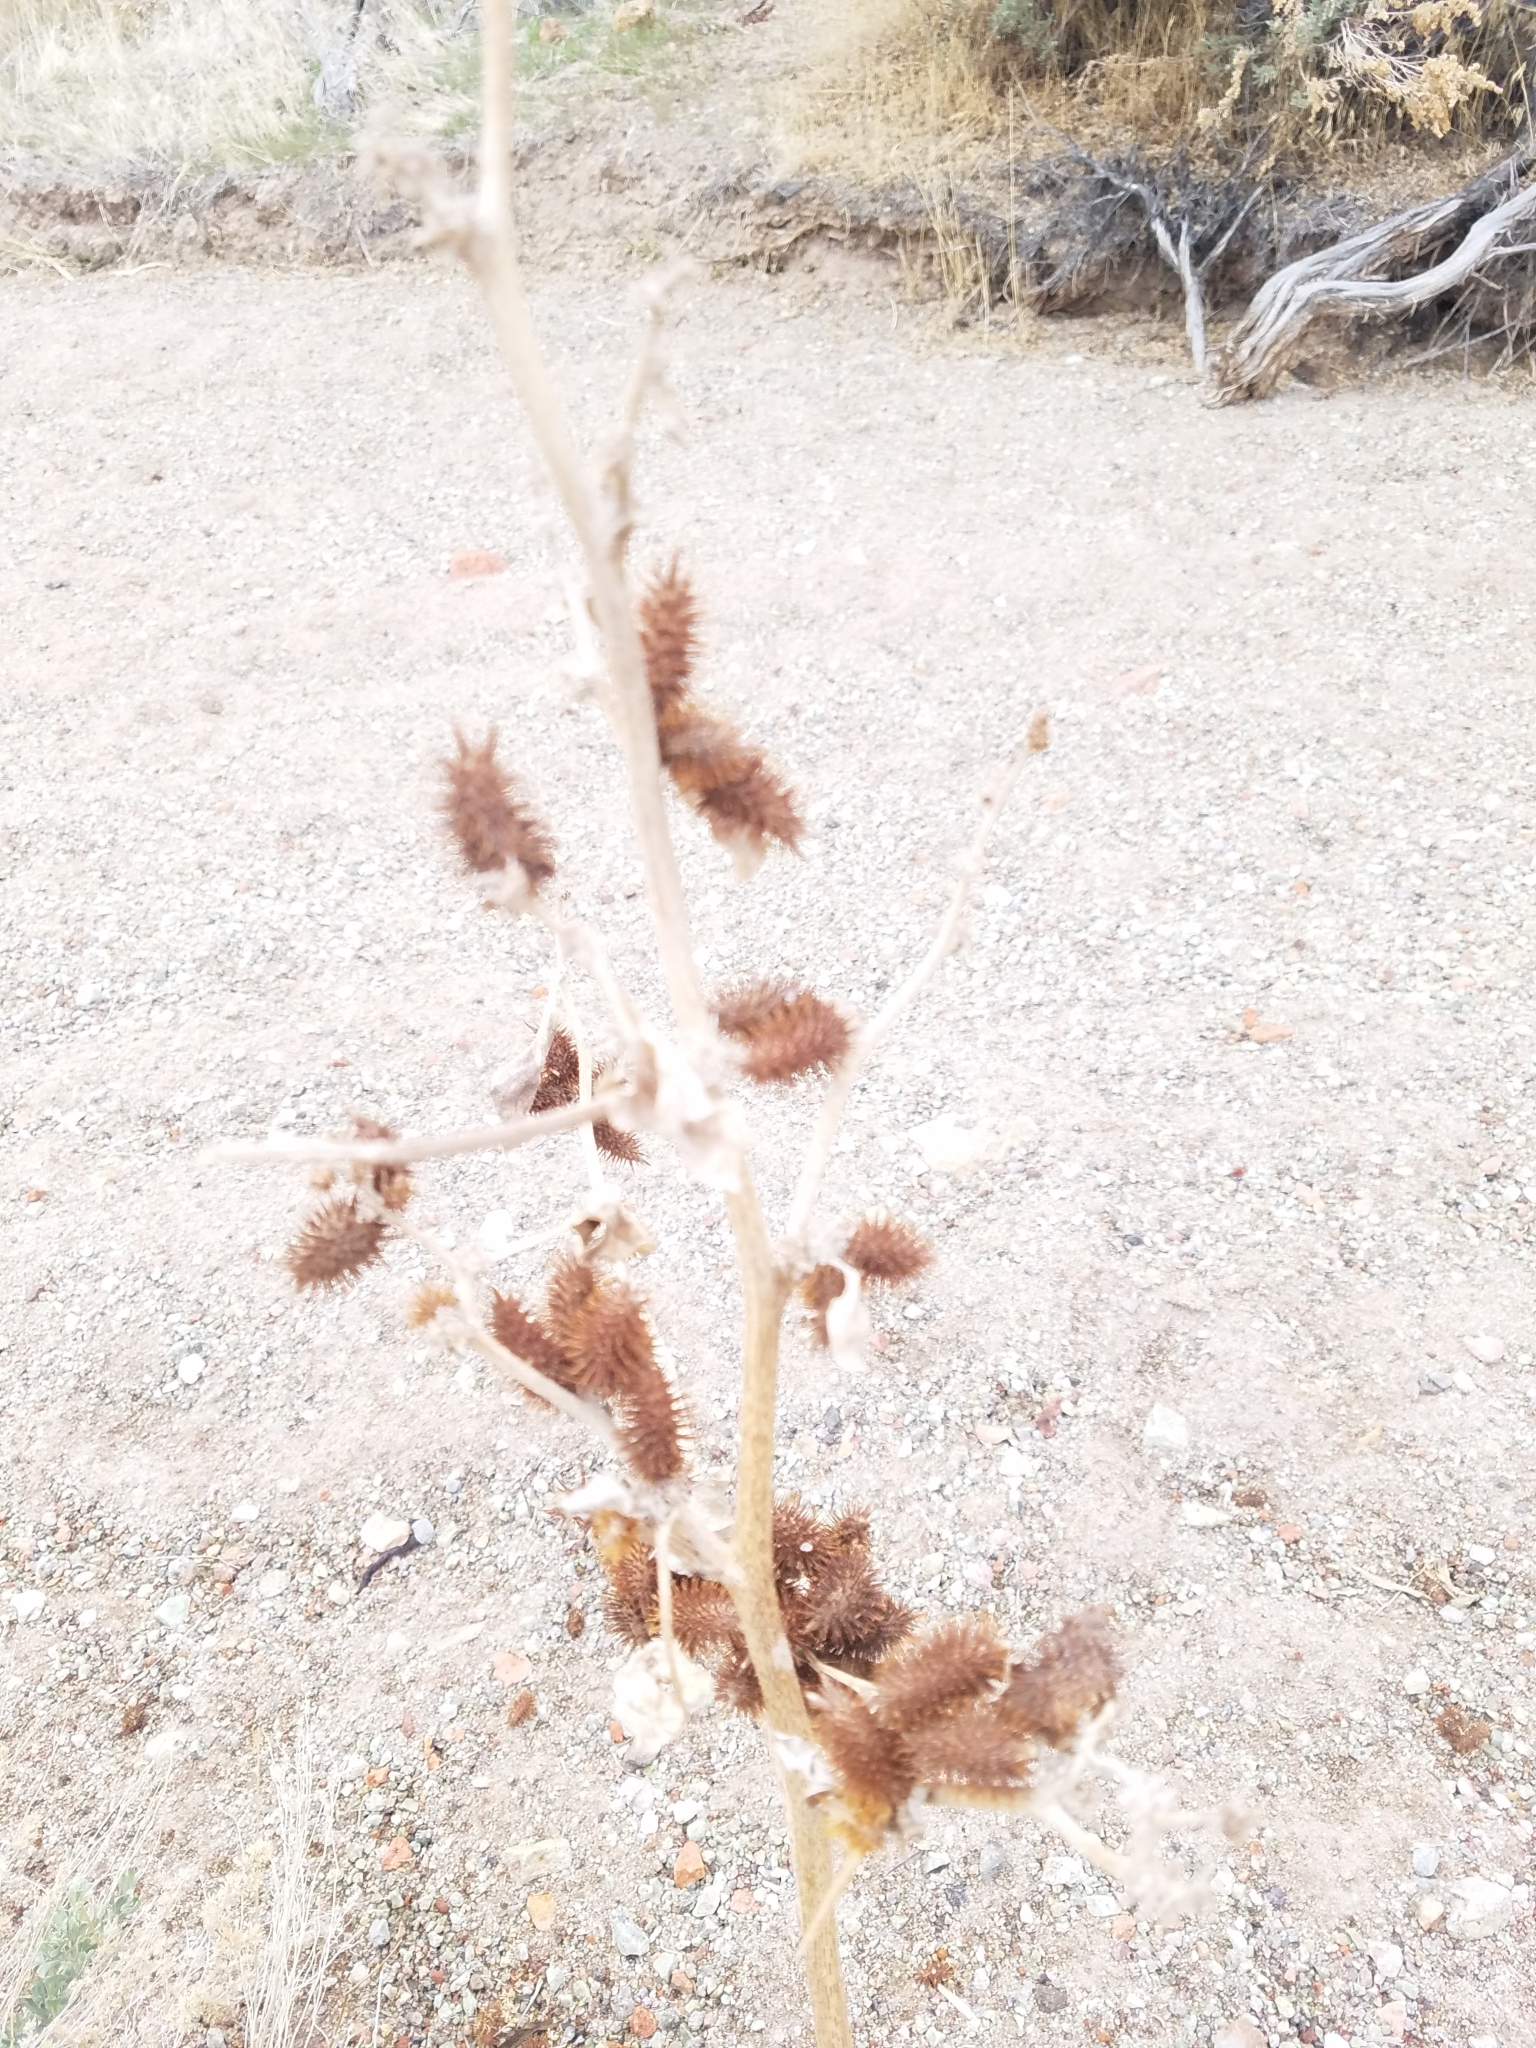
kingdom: Plantae
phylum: Tracheophyta
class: Magnoliopsida
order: Asterales
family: Asteraceae
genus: Xanthium
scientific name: Xanthium strumarium
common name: Rough cocklebur
